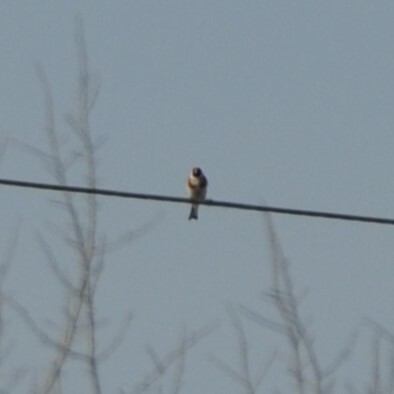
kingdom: Animalia
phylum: Chordata
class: Aves
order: Passeriformes
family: Fringillidae
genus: Carduelis
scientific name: Carduelis carduelis
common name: European goldfinch
